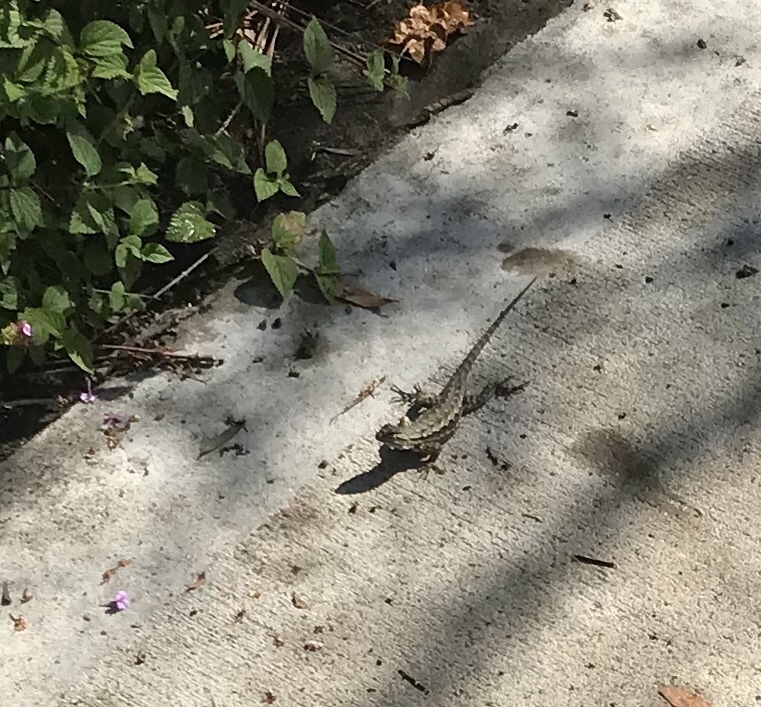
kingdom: Animalia
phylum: Chordata
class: Squamata
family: Phrynosomatidae
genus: Sceloporus
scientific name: Sceloporus occidentalis
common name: Western fence lizard
